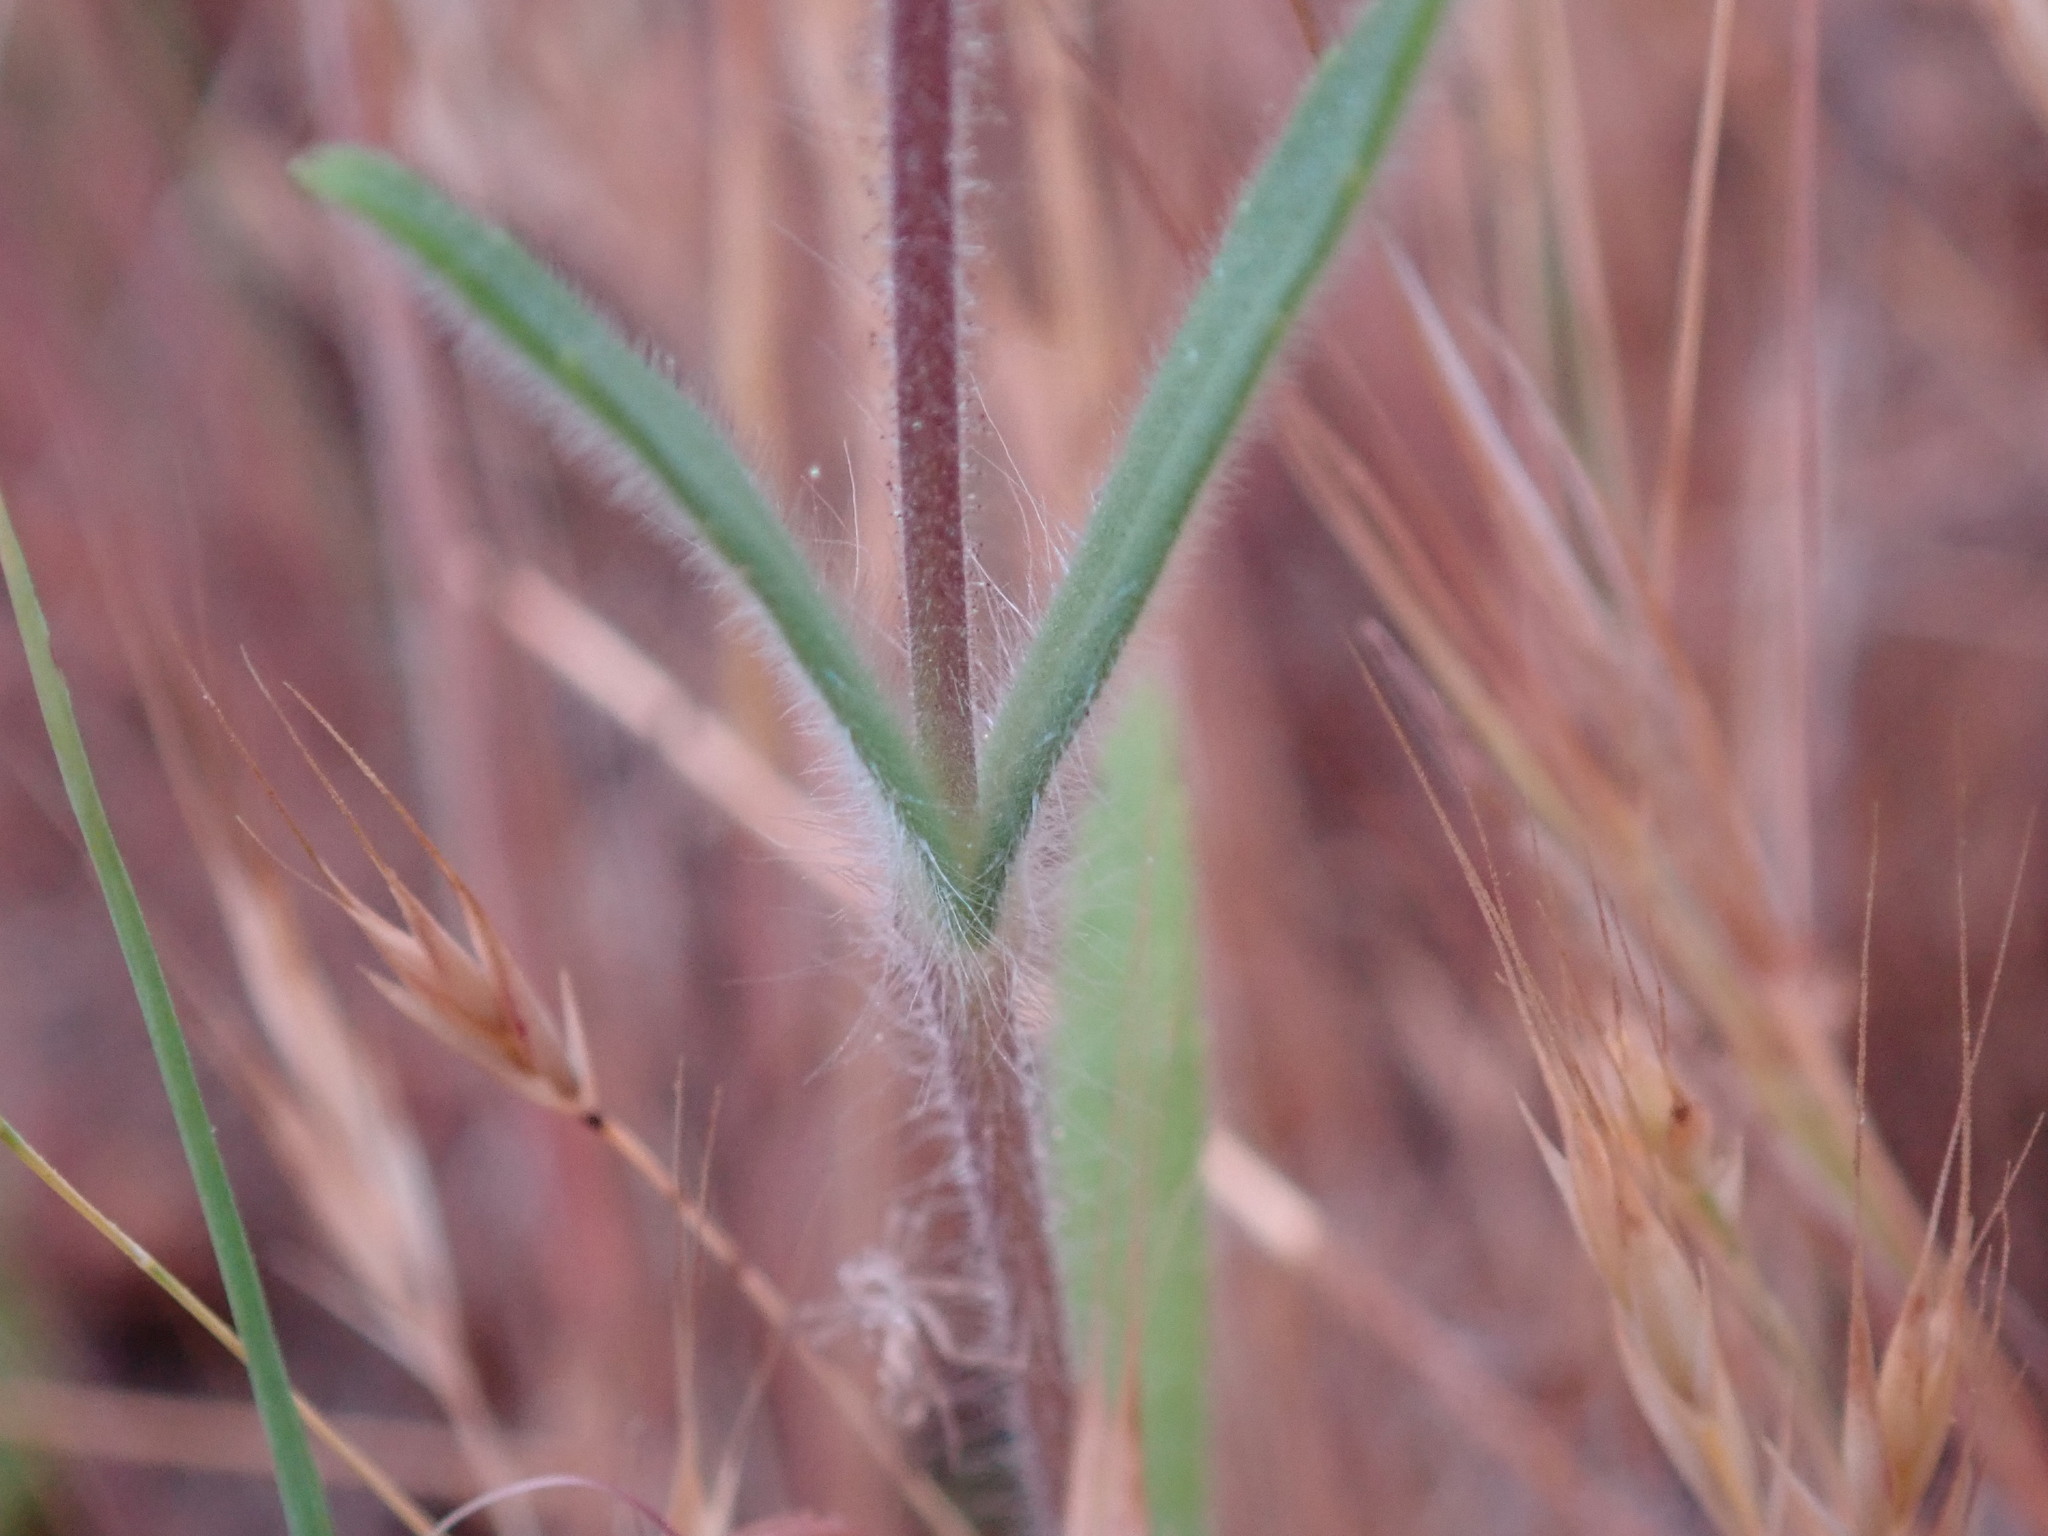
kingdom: Plantae
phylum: Tracheophyta
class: Magnoliopsida
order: Asterales
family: Asteraceae
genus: Madia
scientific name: Madia gracilis
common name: Grassy tarweed
